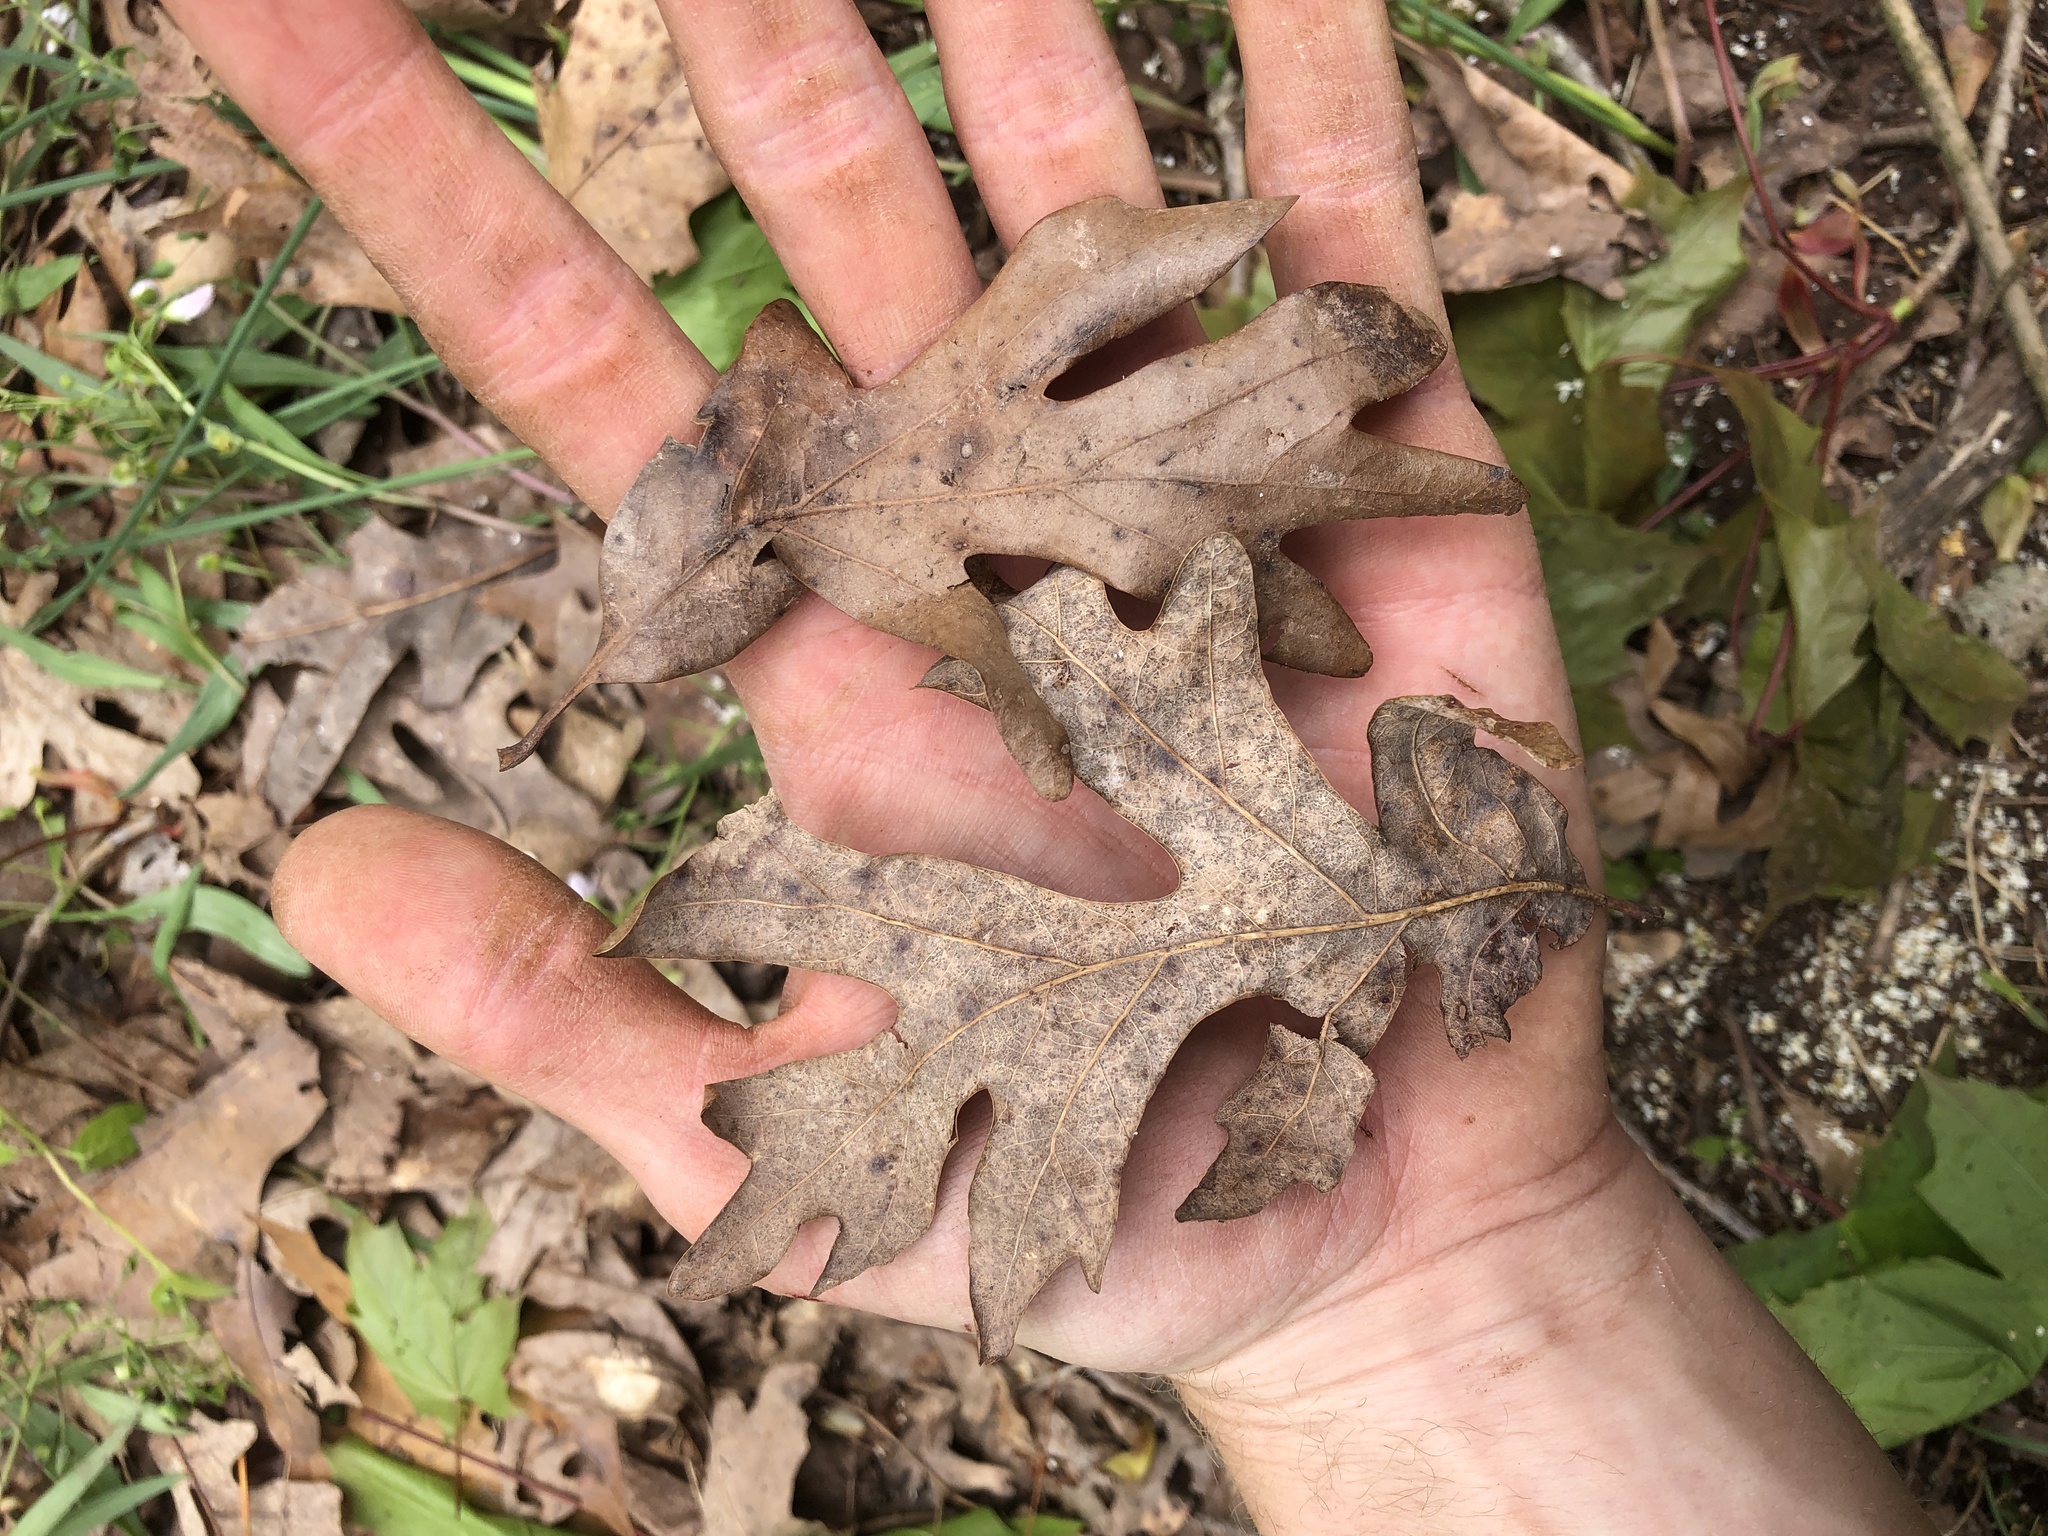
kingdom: Plantae
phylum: Tracheophyta
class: Magnoliopsida
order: Fagales
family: Fagaceae
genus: Quercus
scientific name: Quercus alba
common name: White oak
